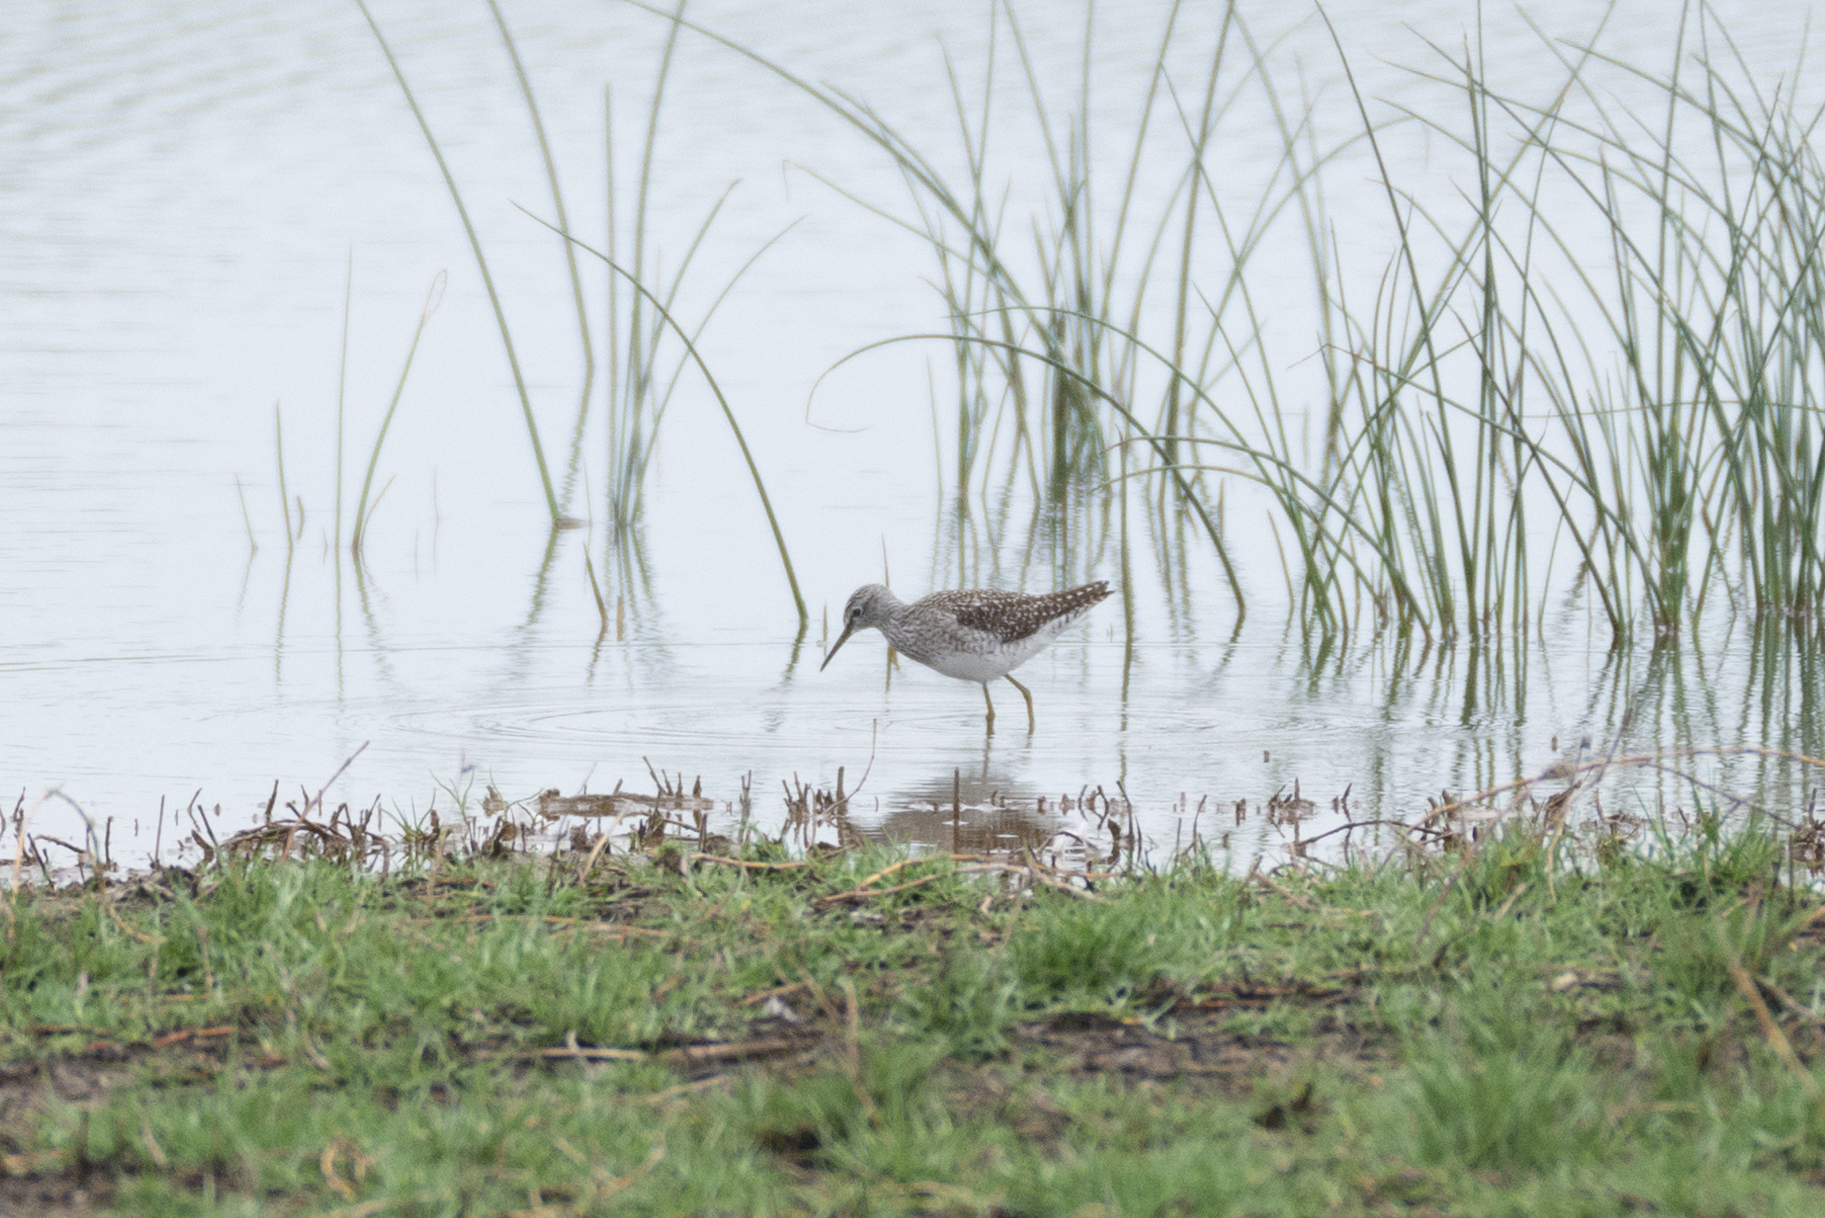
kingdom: Animalia
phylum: Chordata
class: Aves
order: Charadriiformes
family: Scolopacidae
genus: Tringa
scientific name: Tringa glareola
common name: Wood sandpiper
